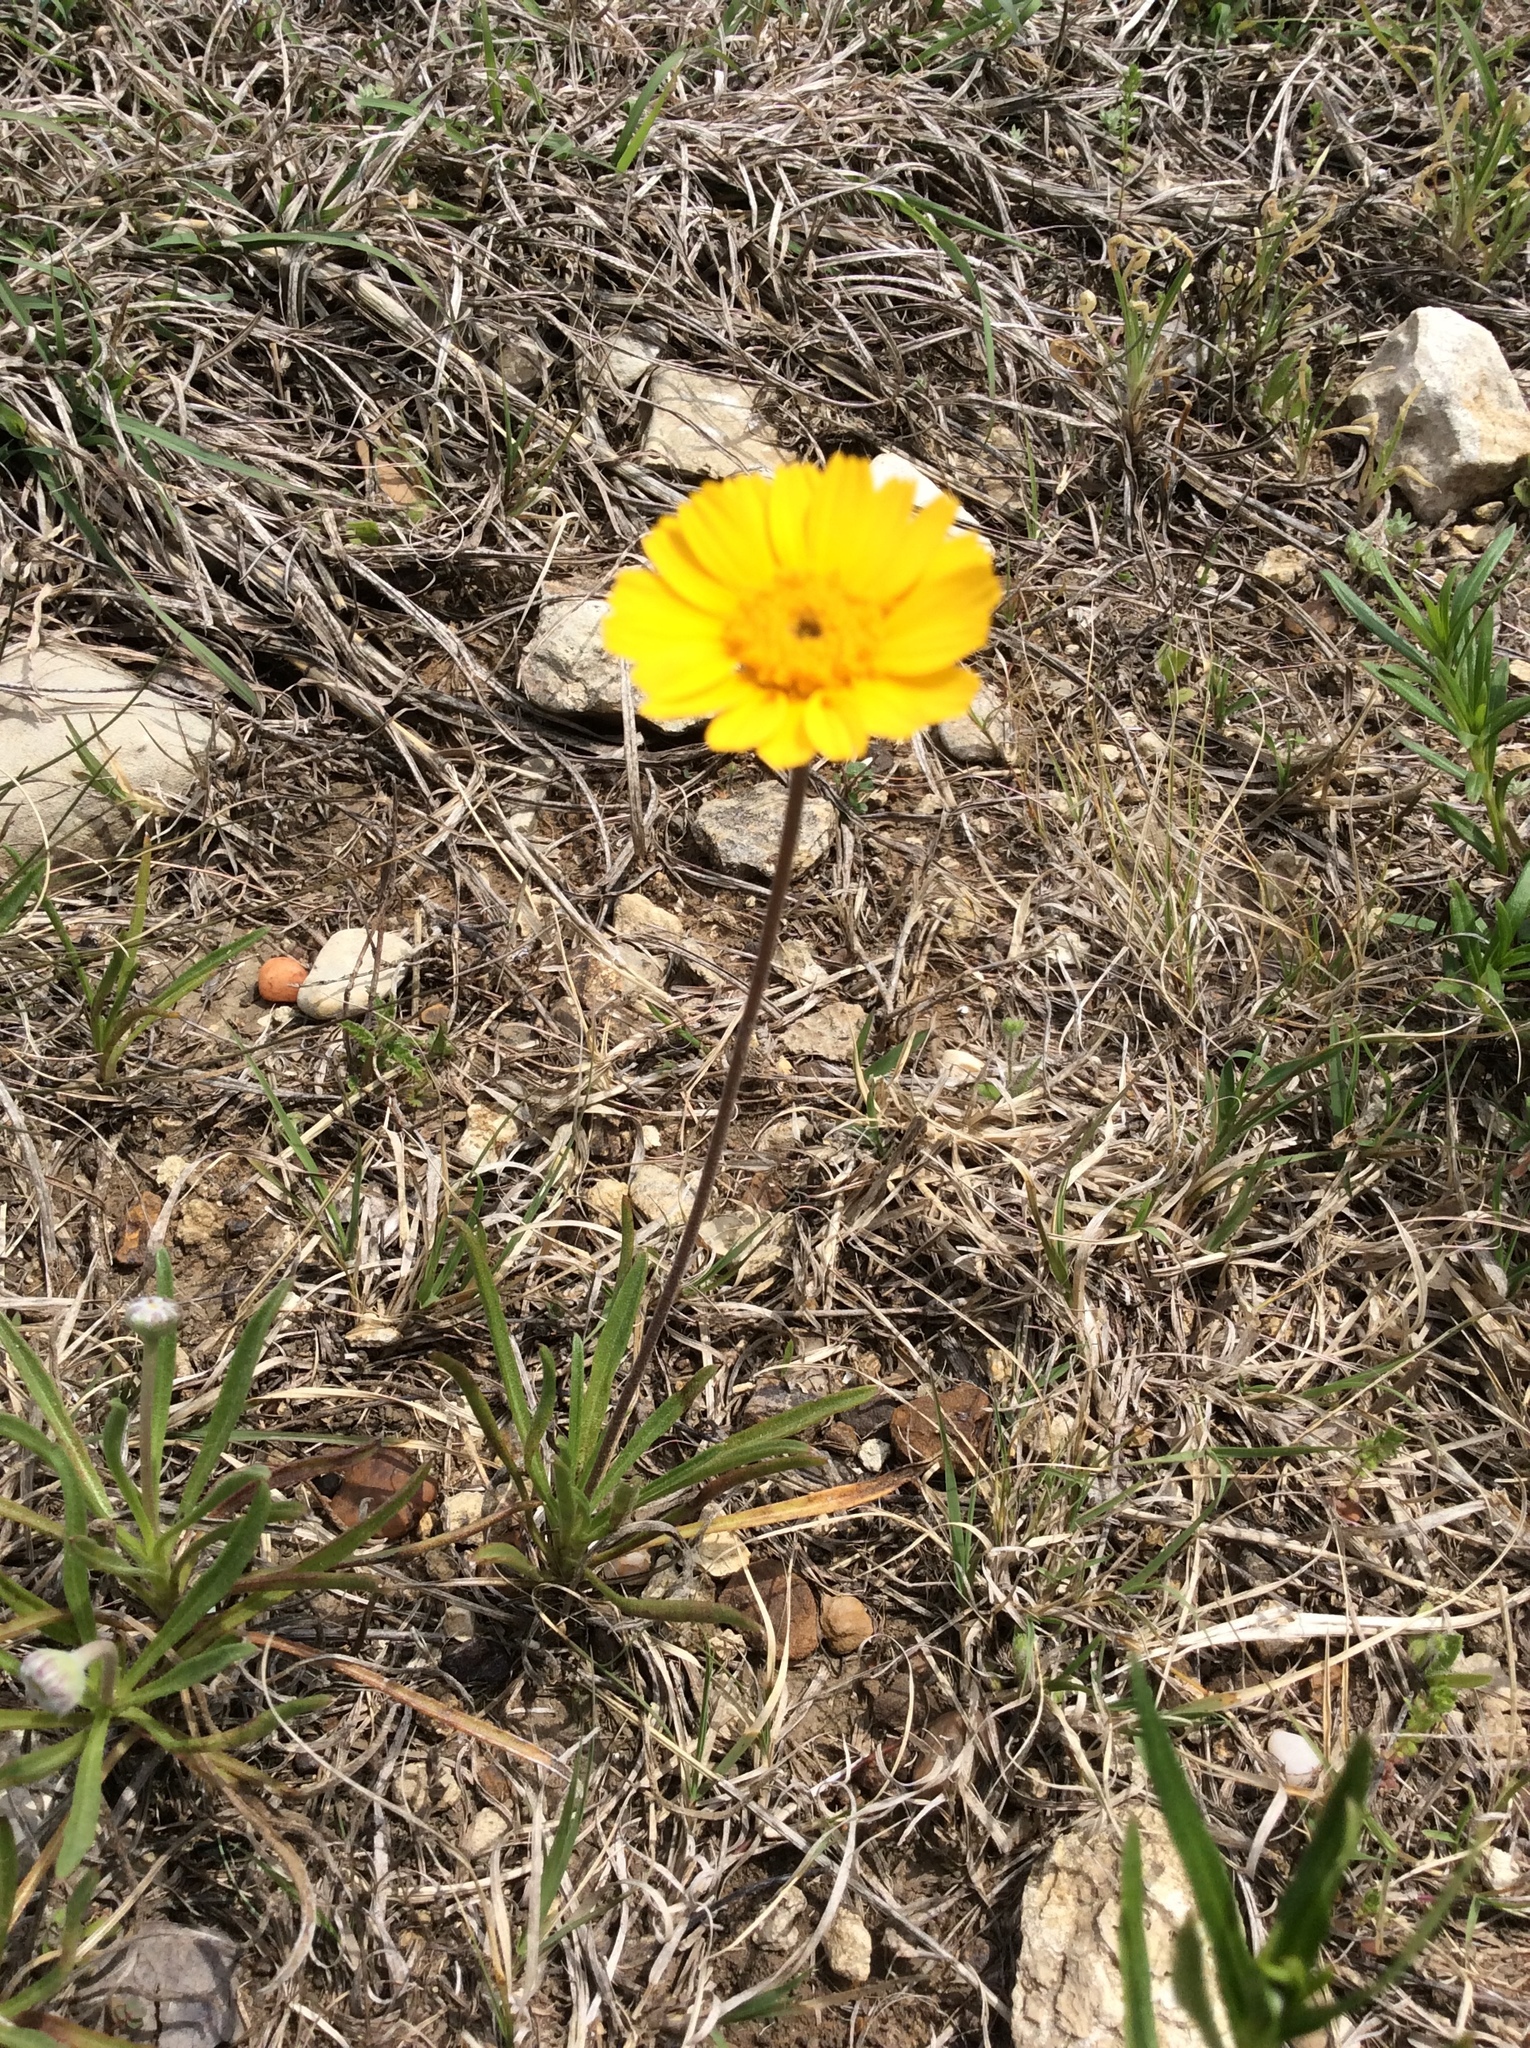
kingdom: Plantae
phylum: Tracheophyta
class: Magnoliopsida
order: Asterales
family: Asteraceae
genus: Tetraneuris
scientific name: Tetraneuris scaposa
